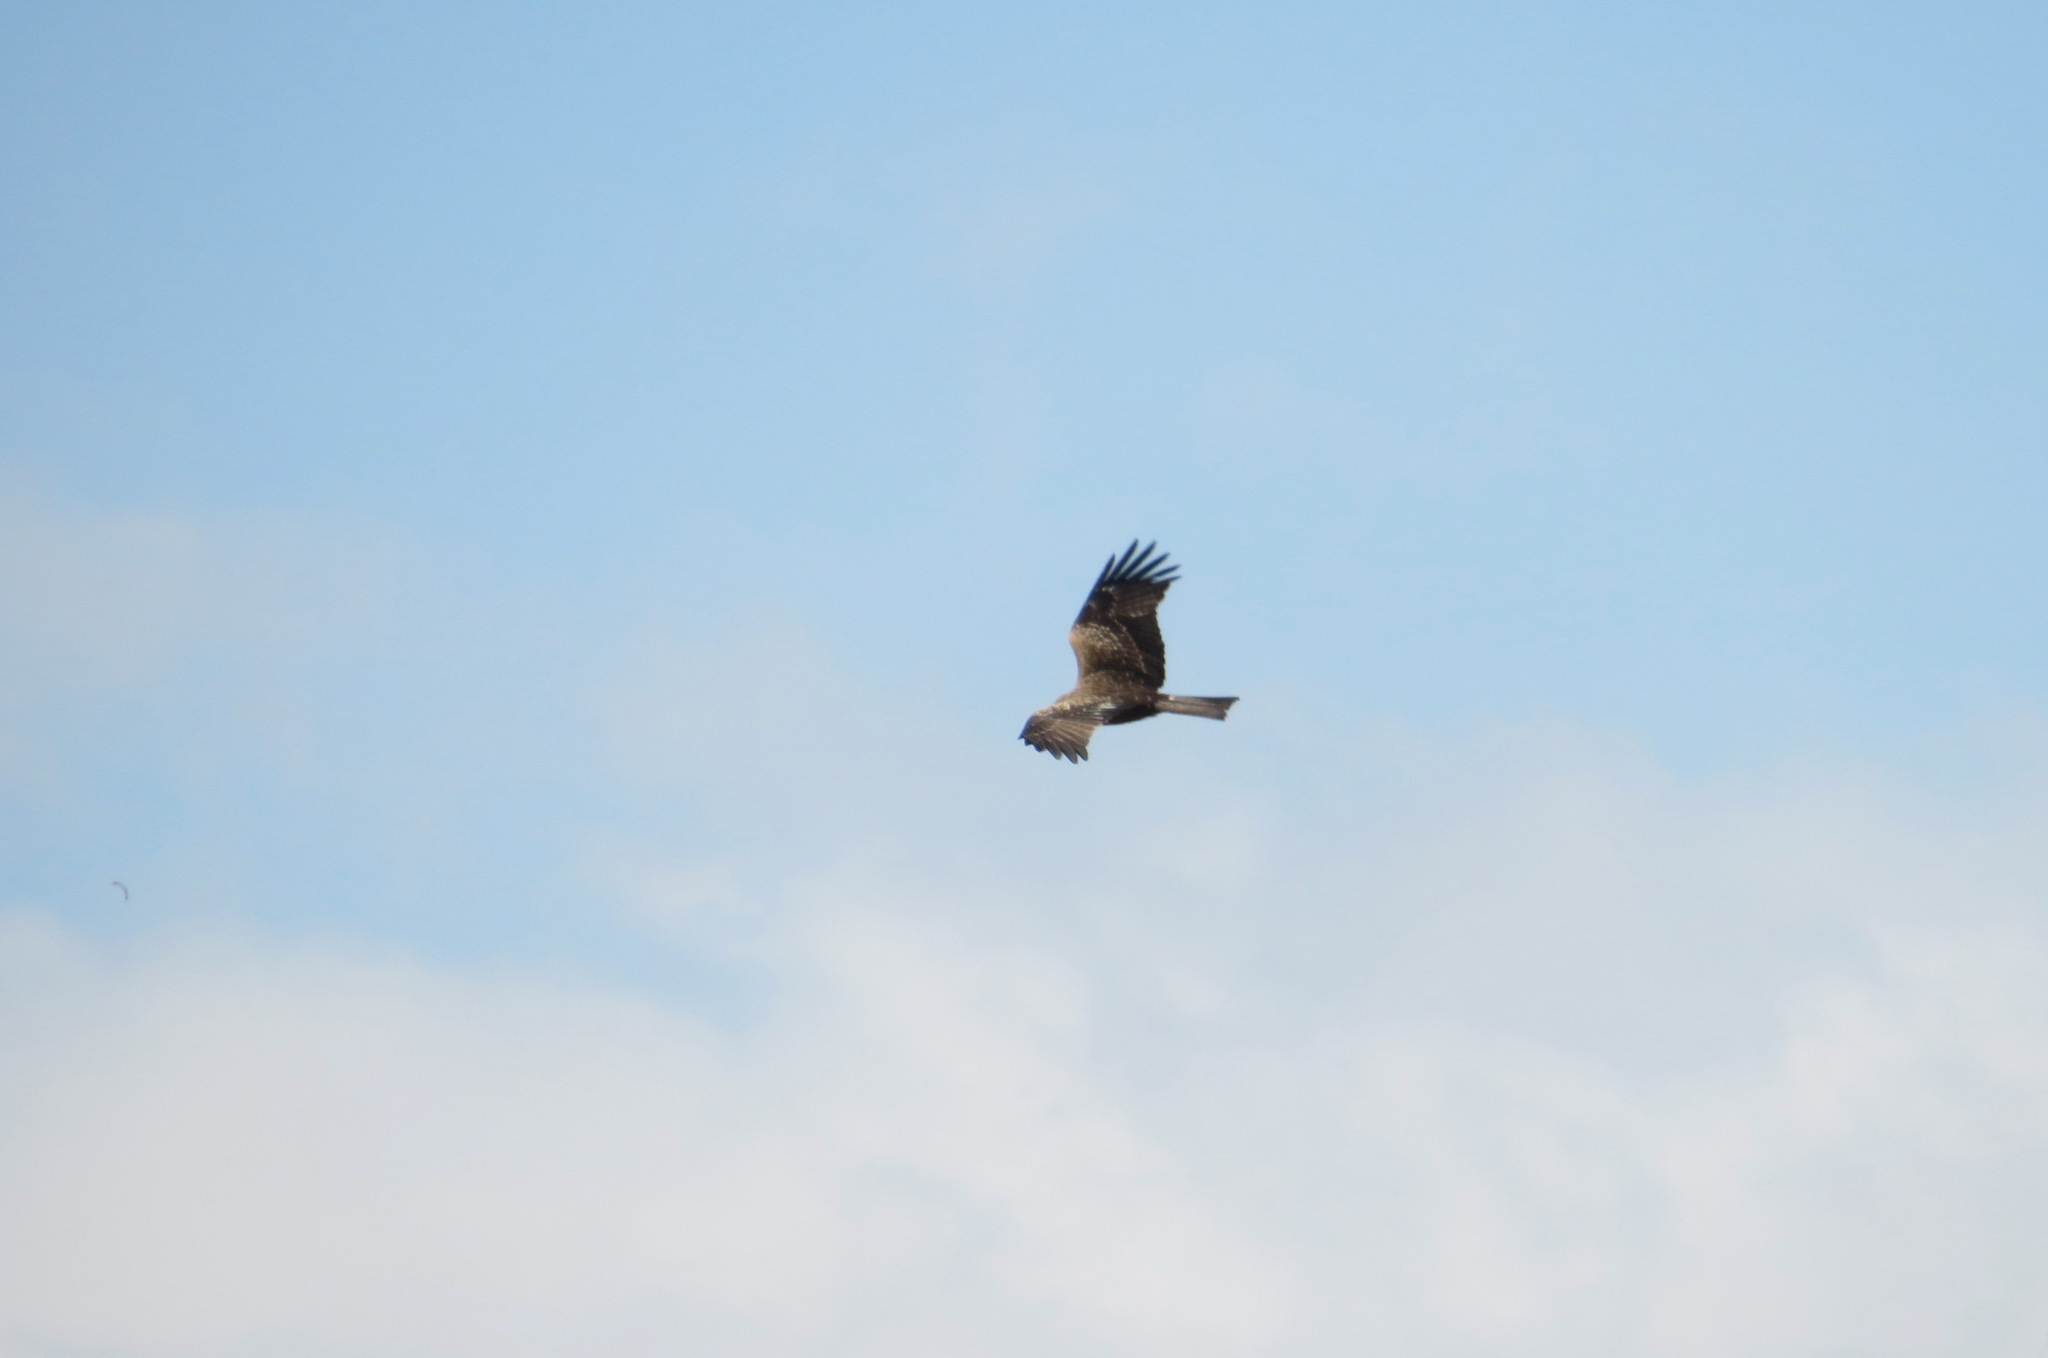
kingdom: Animalia
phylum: Chordata
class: Aves
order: Accipitriformes
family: Accipitridae
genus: Milvus
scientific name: Milvus migrans
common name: Black kite
